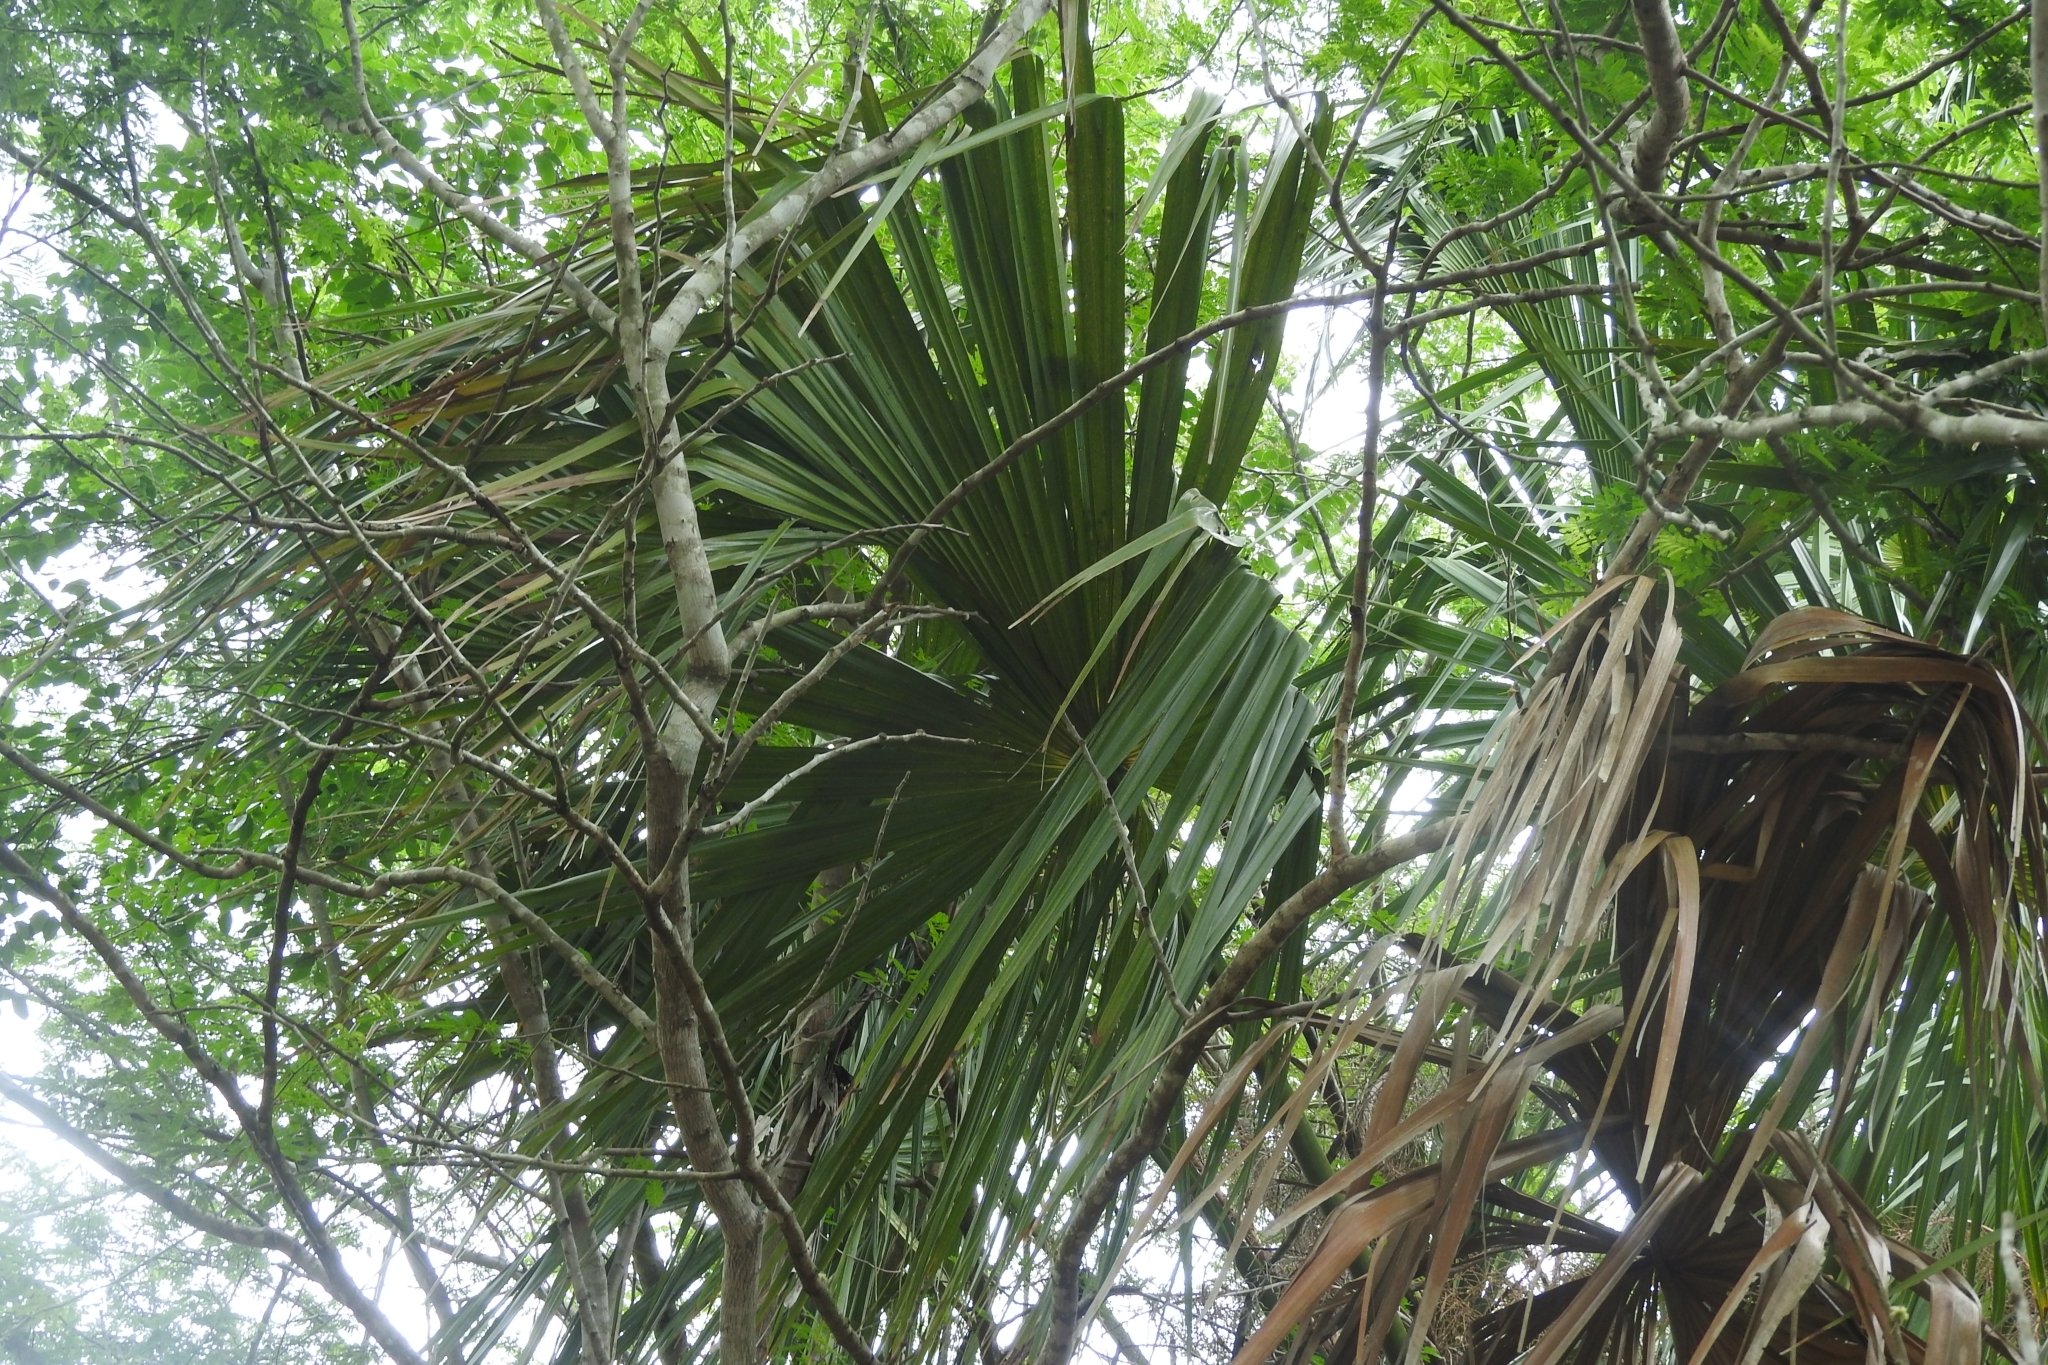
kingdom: Plantae
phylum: Tracheophyta
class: Liliopsida
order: Arecales
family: Arecaceae
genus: Sabal
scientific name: Sabal mexicana
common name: Texas palmetto
